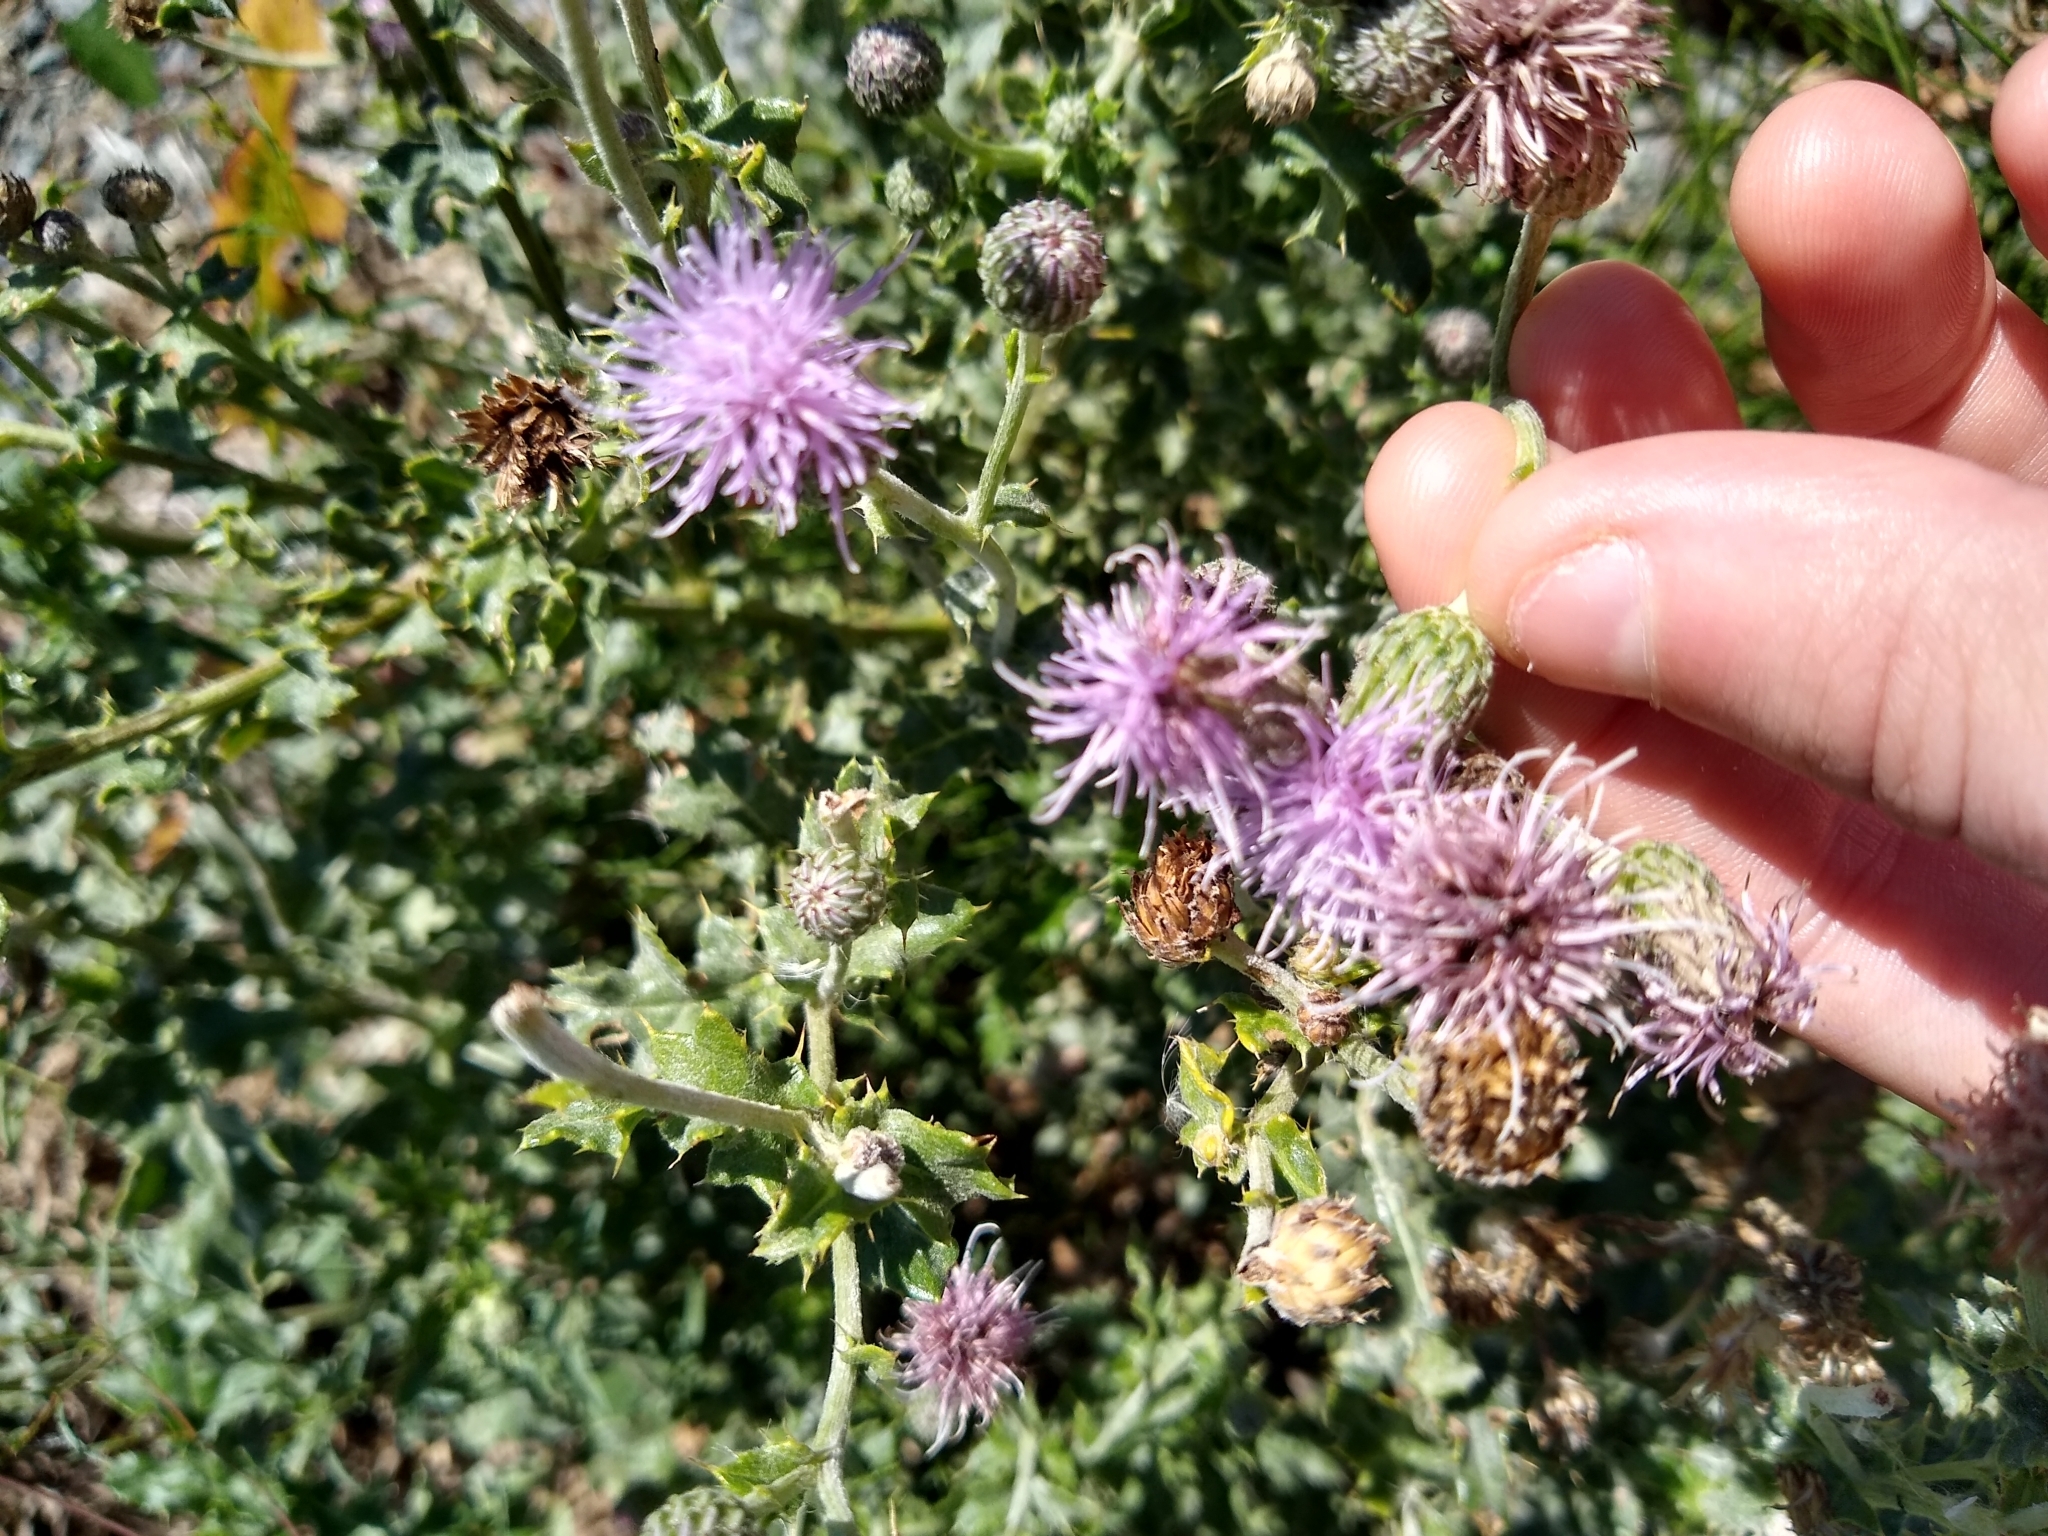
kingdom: Plantae
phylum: Tracheophyta
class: Magnoliopsida
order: Asterales
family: Asteraceae
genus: Cirsium
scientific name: Cirsium arvense
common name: Creeping thistle
